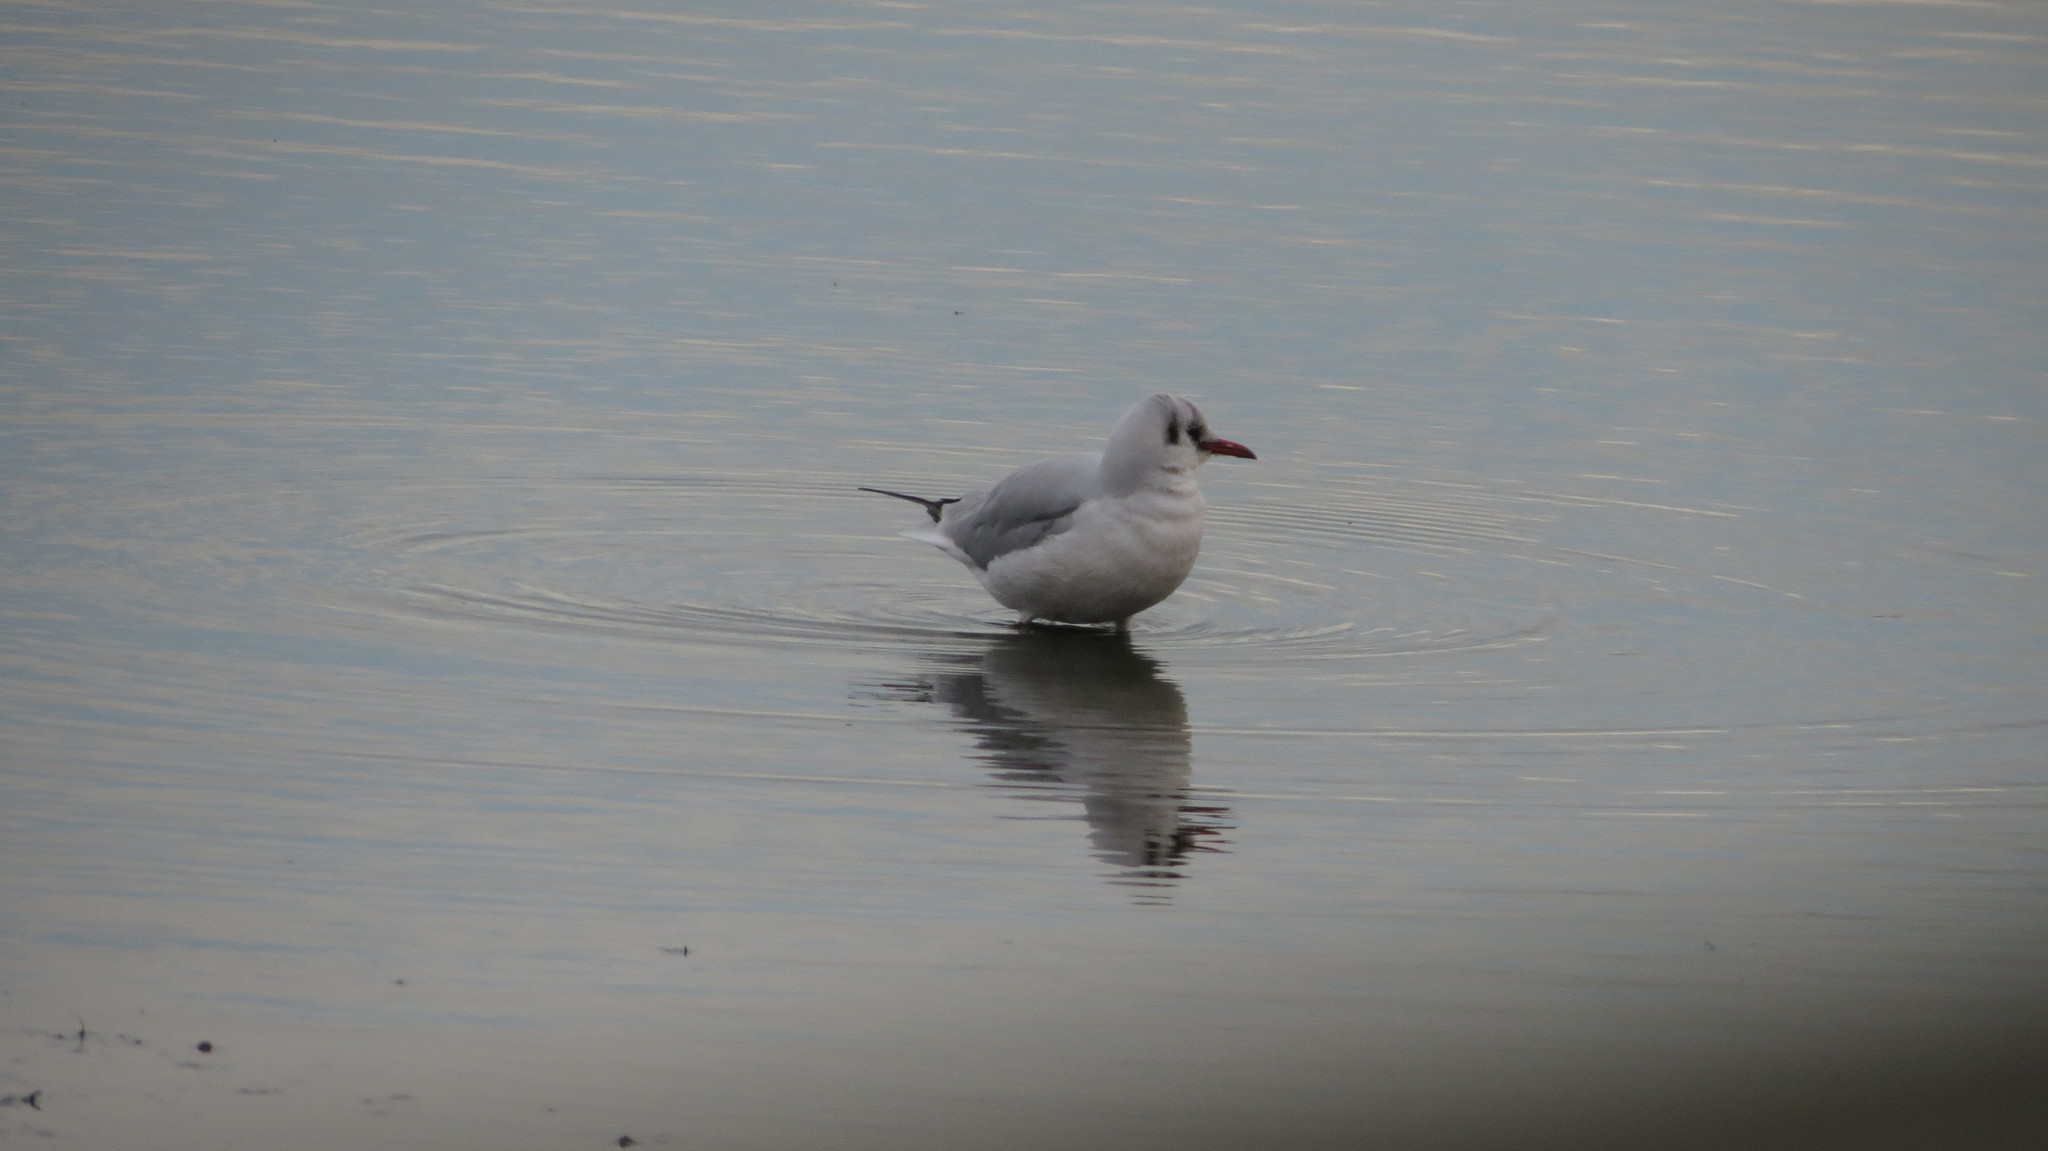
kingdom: Animalia
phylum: Chordata
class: Aves
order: Charadriiformes
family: Laridae
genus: Chroicocephalus
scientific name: Chroicocephalus ridibundus
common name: Black-headed gull
